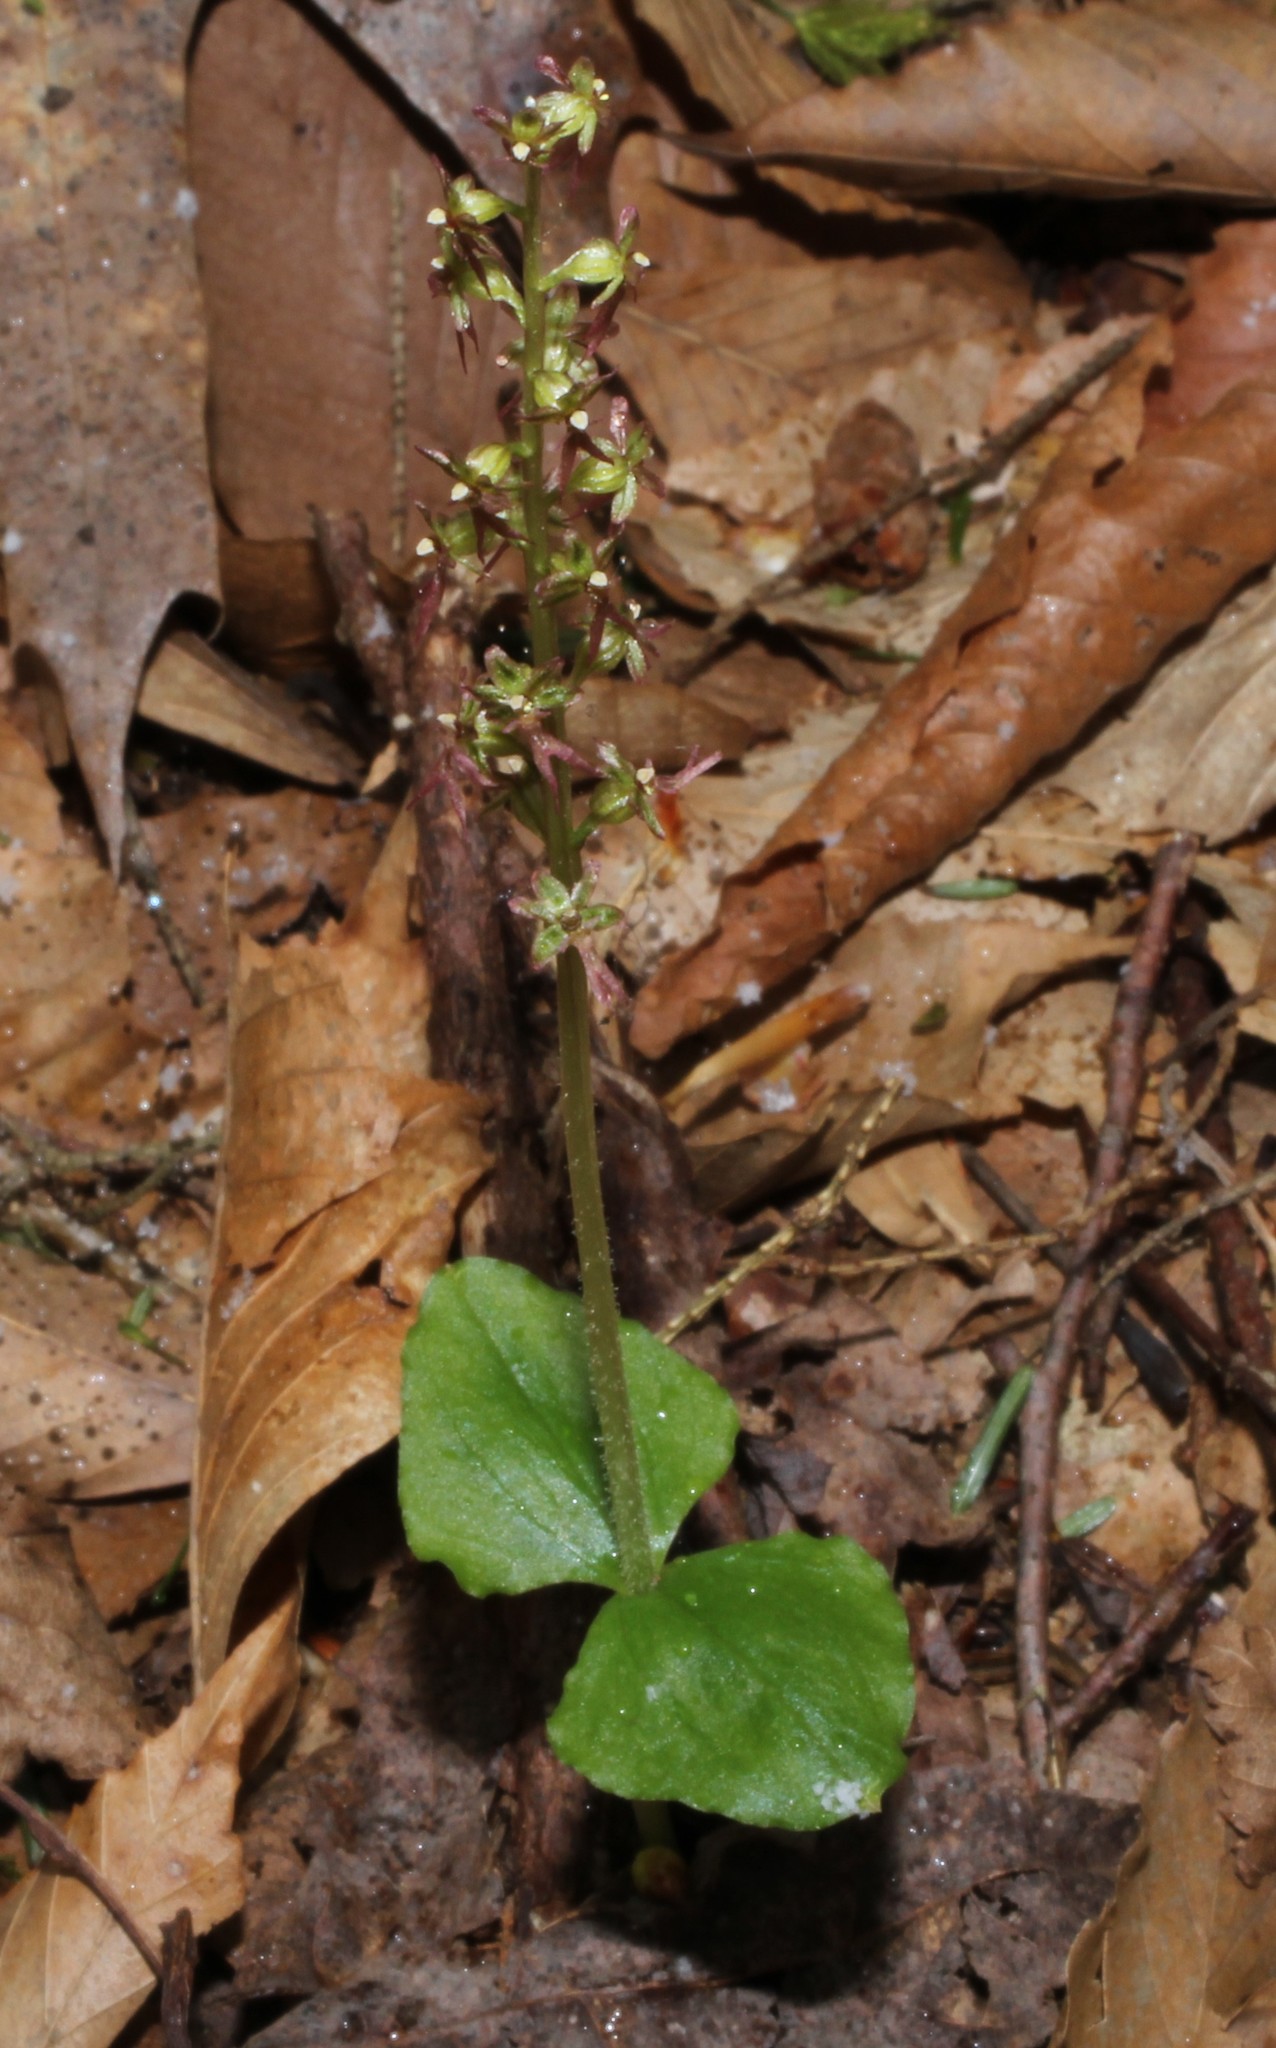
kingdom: Plantae
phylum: Tracheophyta
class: Liliopsida
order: Asparagales
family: Orchidaceae
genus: Neottia
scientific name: Neottia cordata
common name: Lesser twayblade
